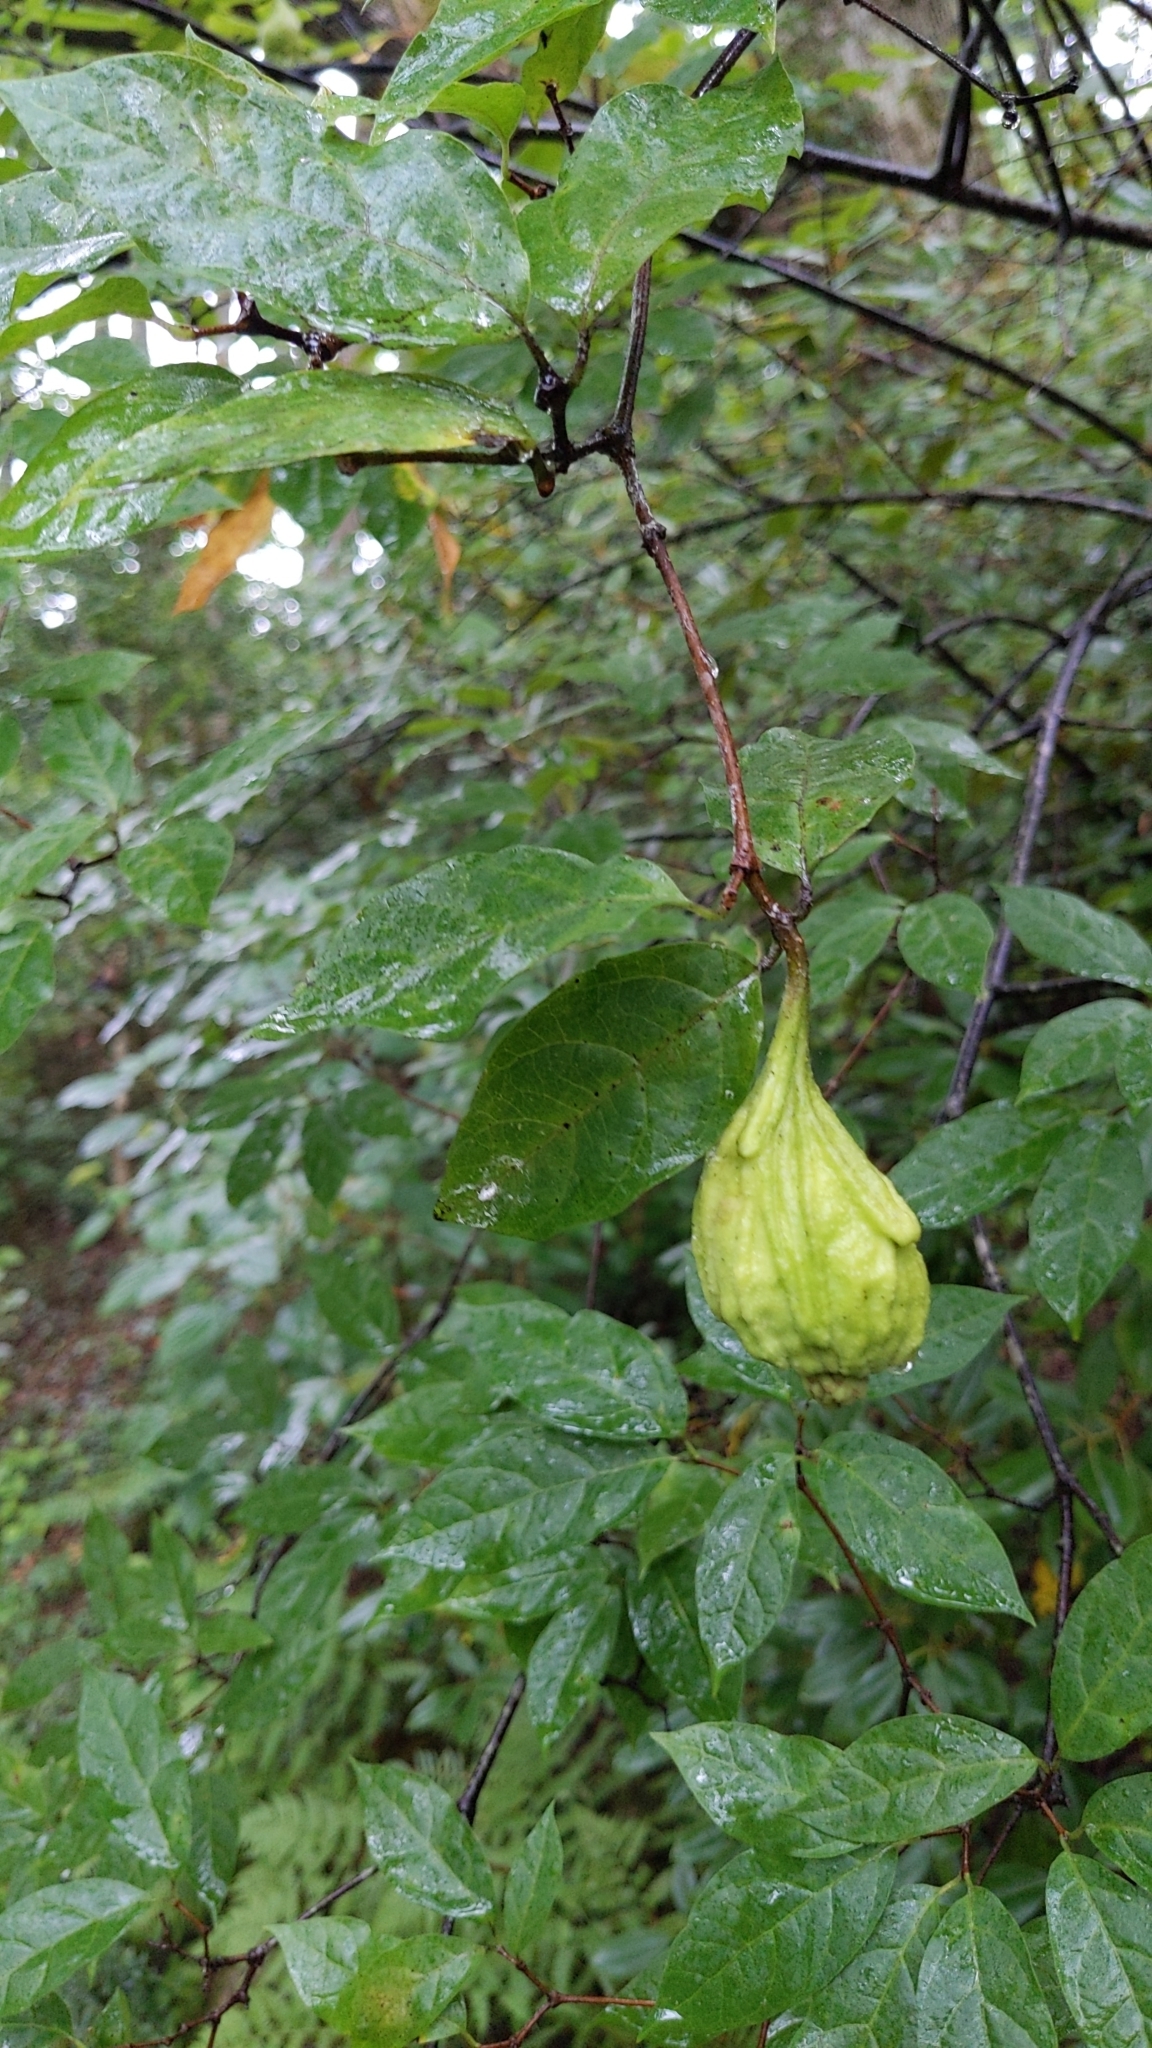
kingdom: Plantae
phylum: Tracheophyta
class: Magnoliopsida
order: Laurales
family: Calycanthaceae
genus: Calycanthus
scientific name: Calycanthus floridus
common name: Carolina-allspice
